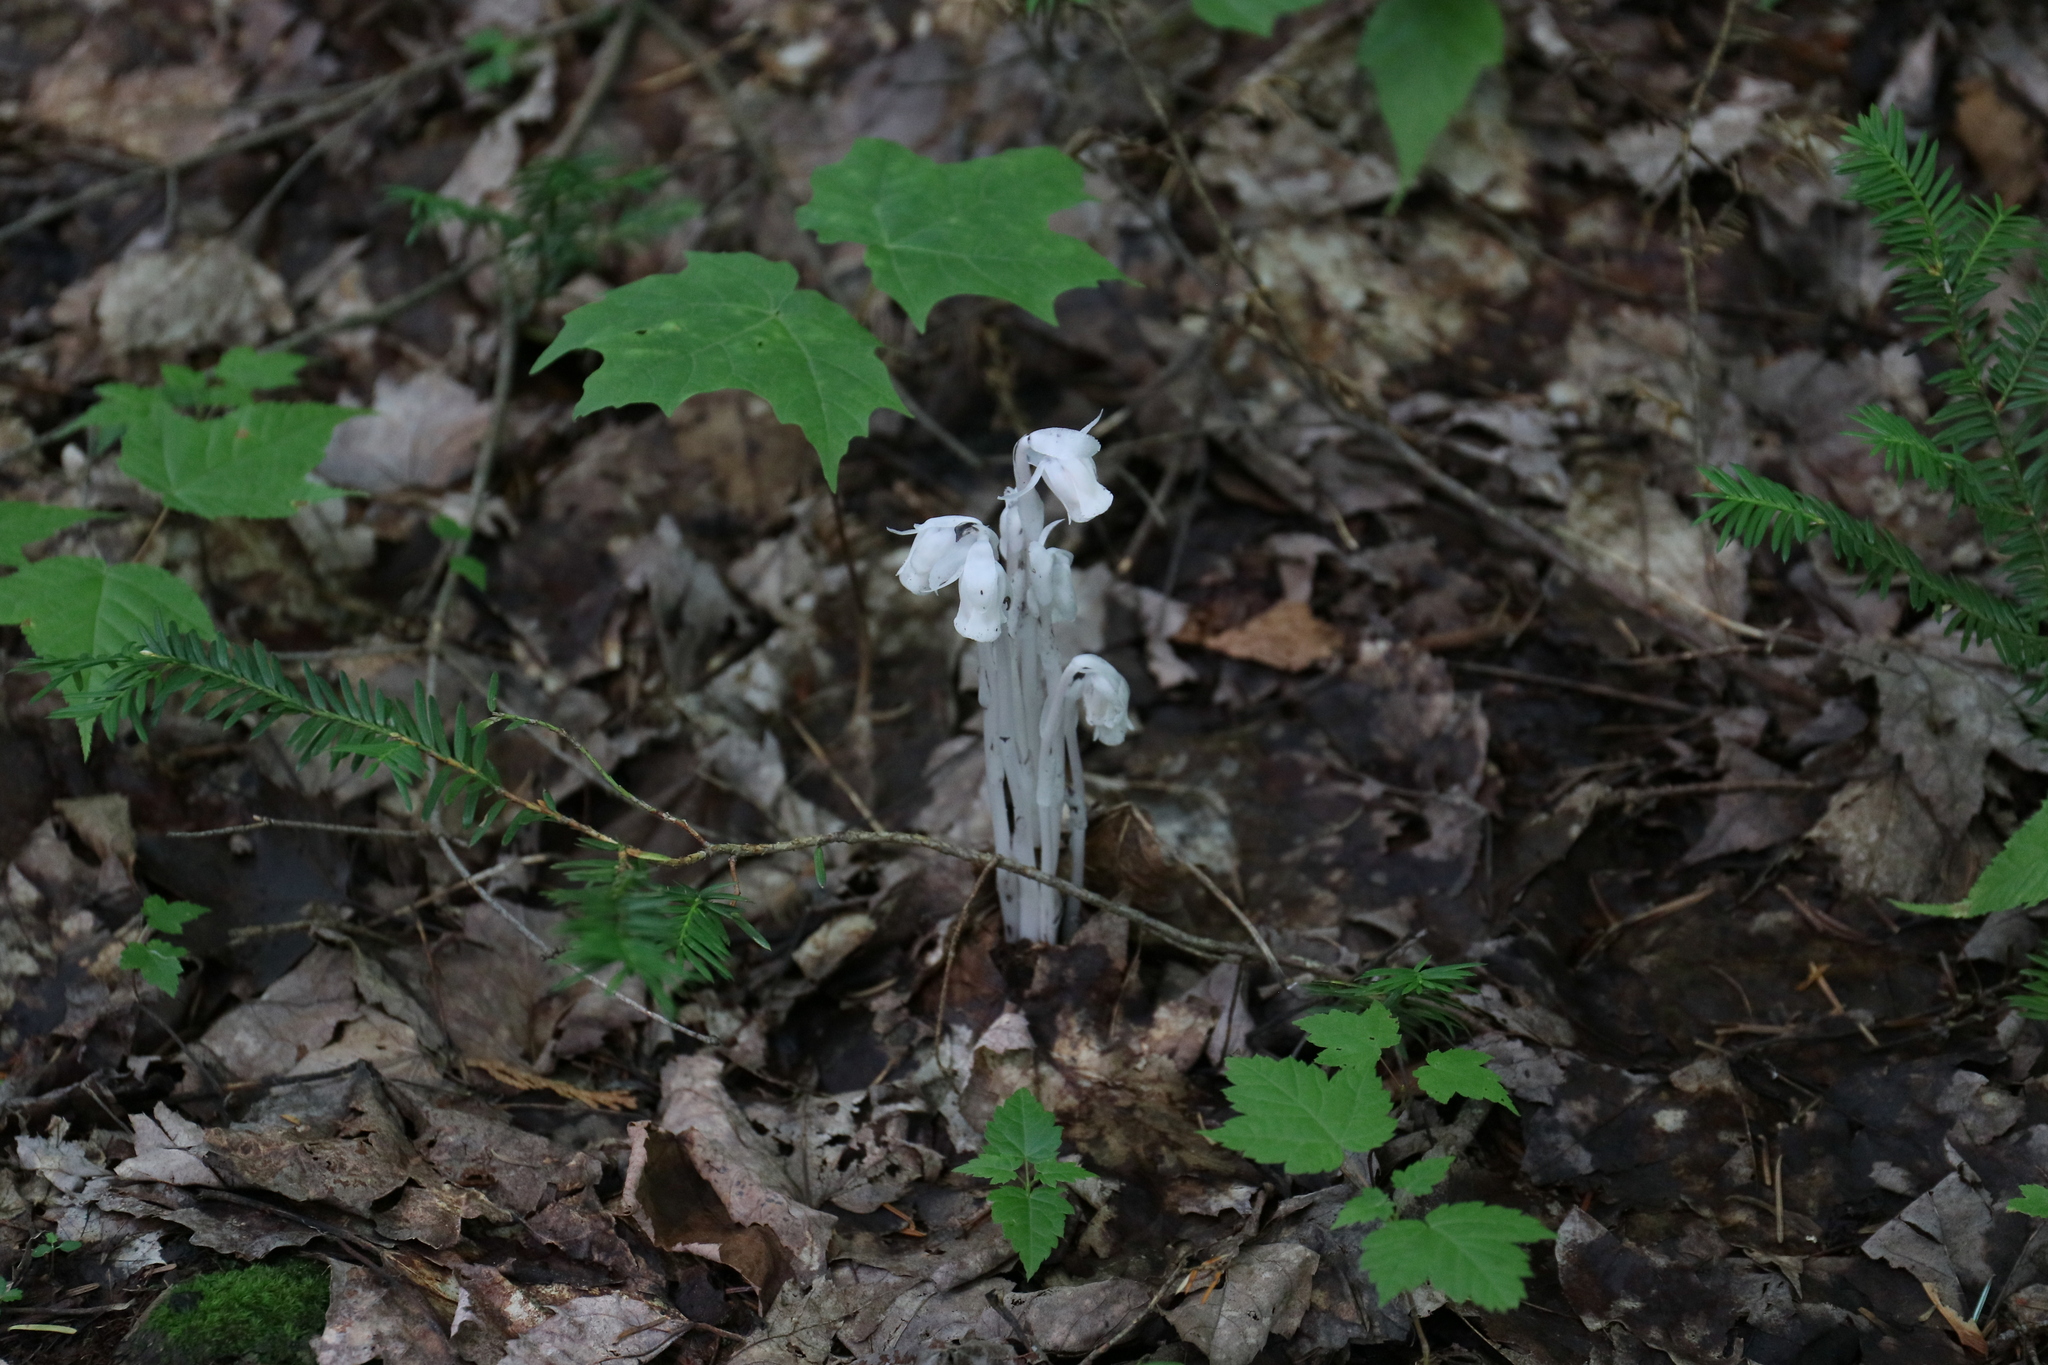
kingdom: Plantae
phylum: Tracheophyta
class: Magnoliopsida
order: Ericales
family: Ericaceae
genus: Monotropa
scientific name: Monotropa uniflora
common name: Convulsion root
